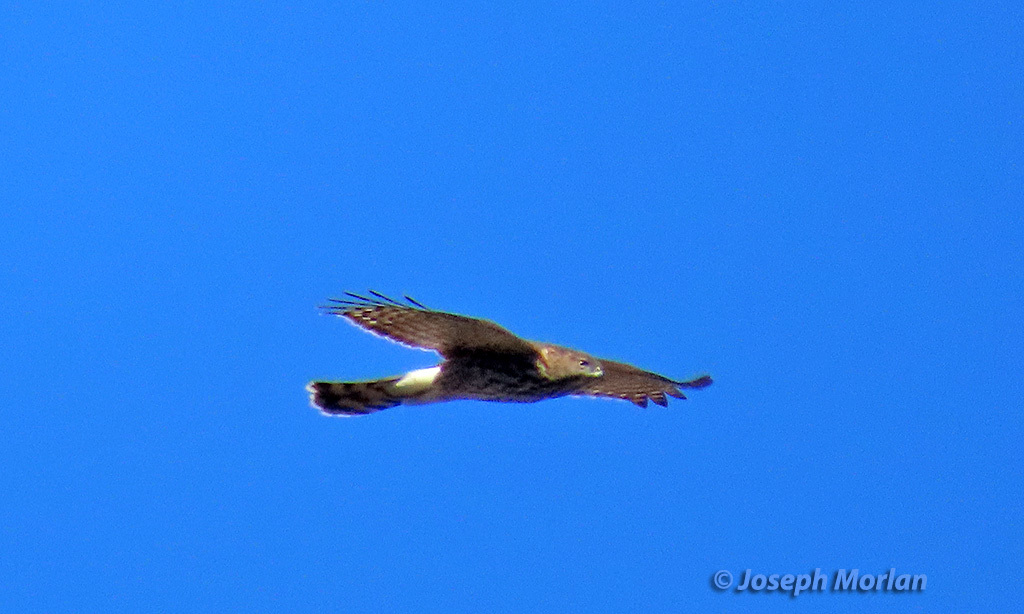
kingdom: Animalia
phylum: Chordata
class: Aves
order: Accipitriformes
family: Accipitridae
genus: Accipiter
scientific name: Accipiter cooperii
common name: Cooper's hawk
